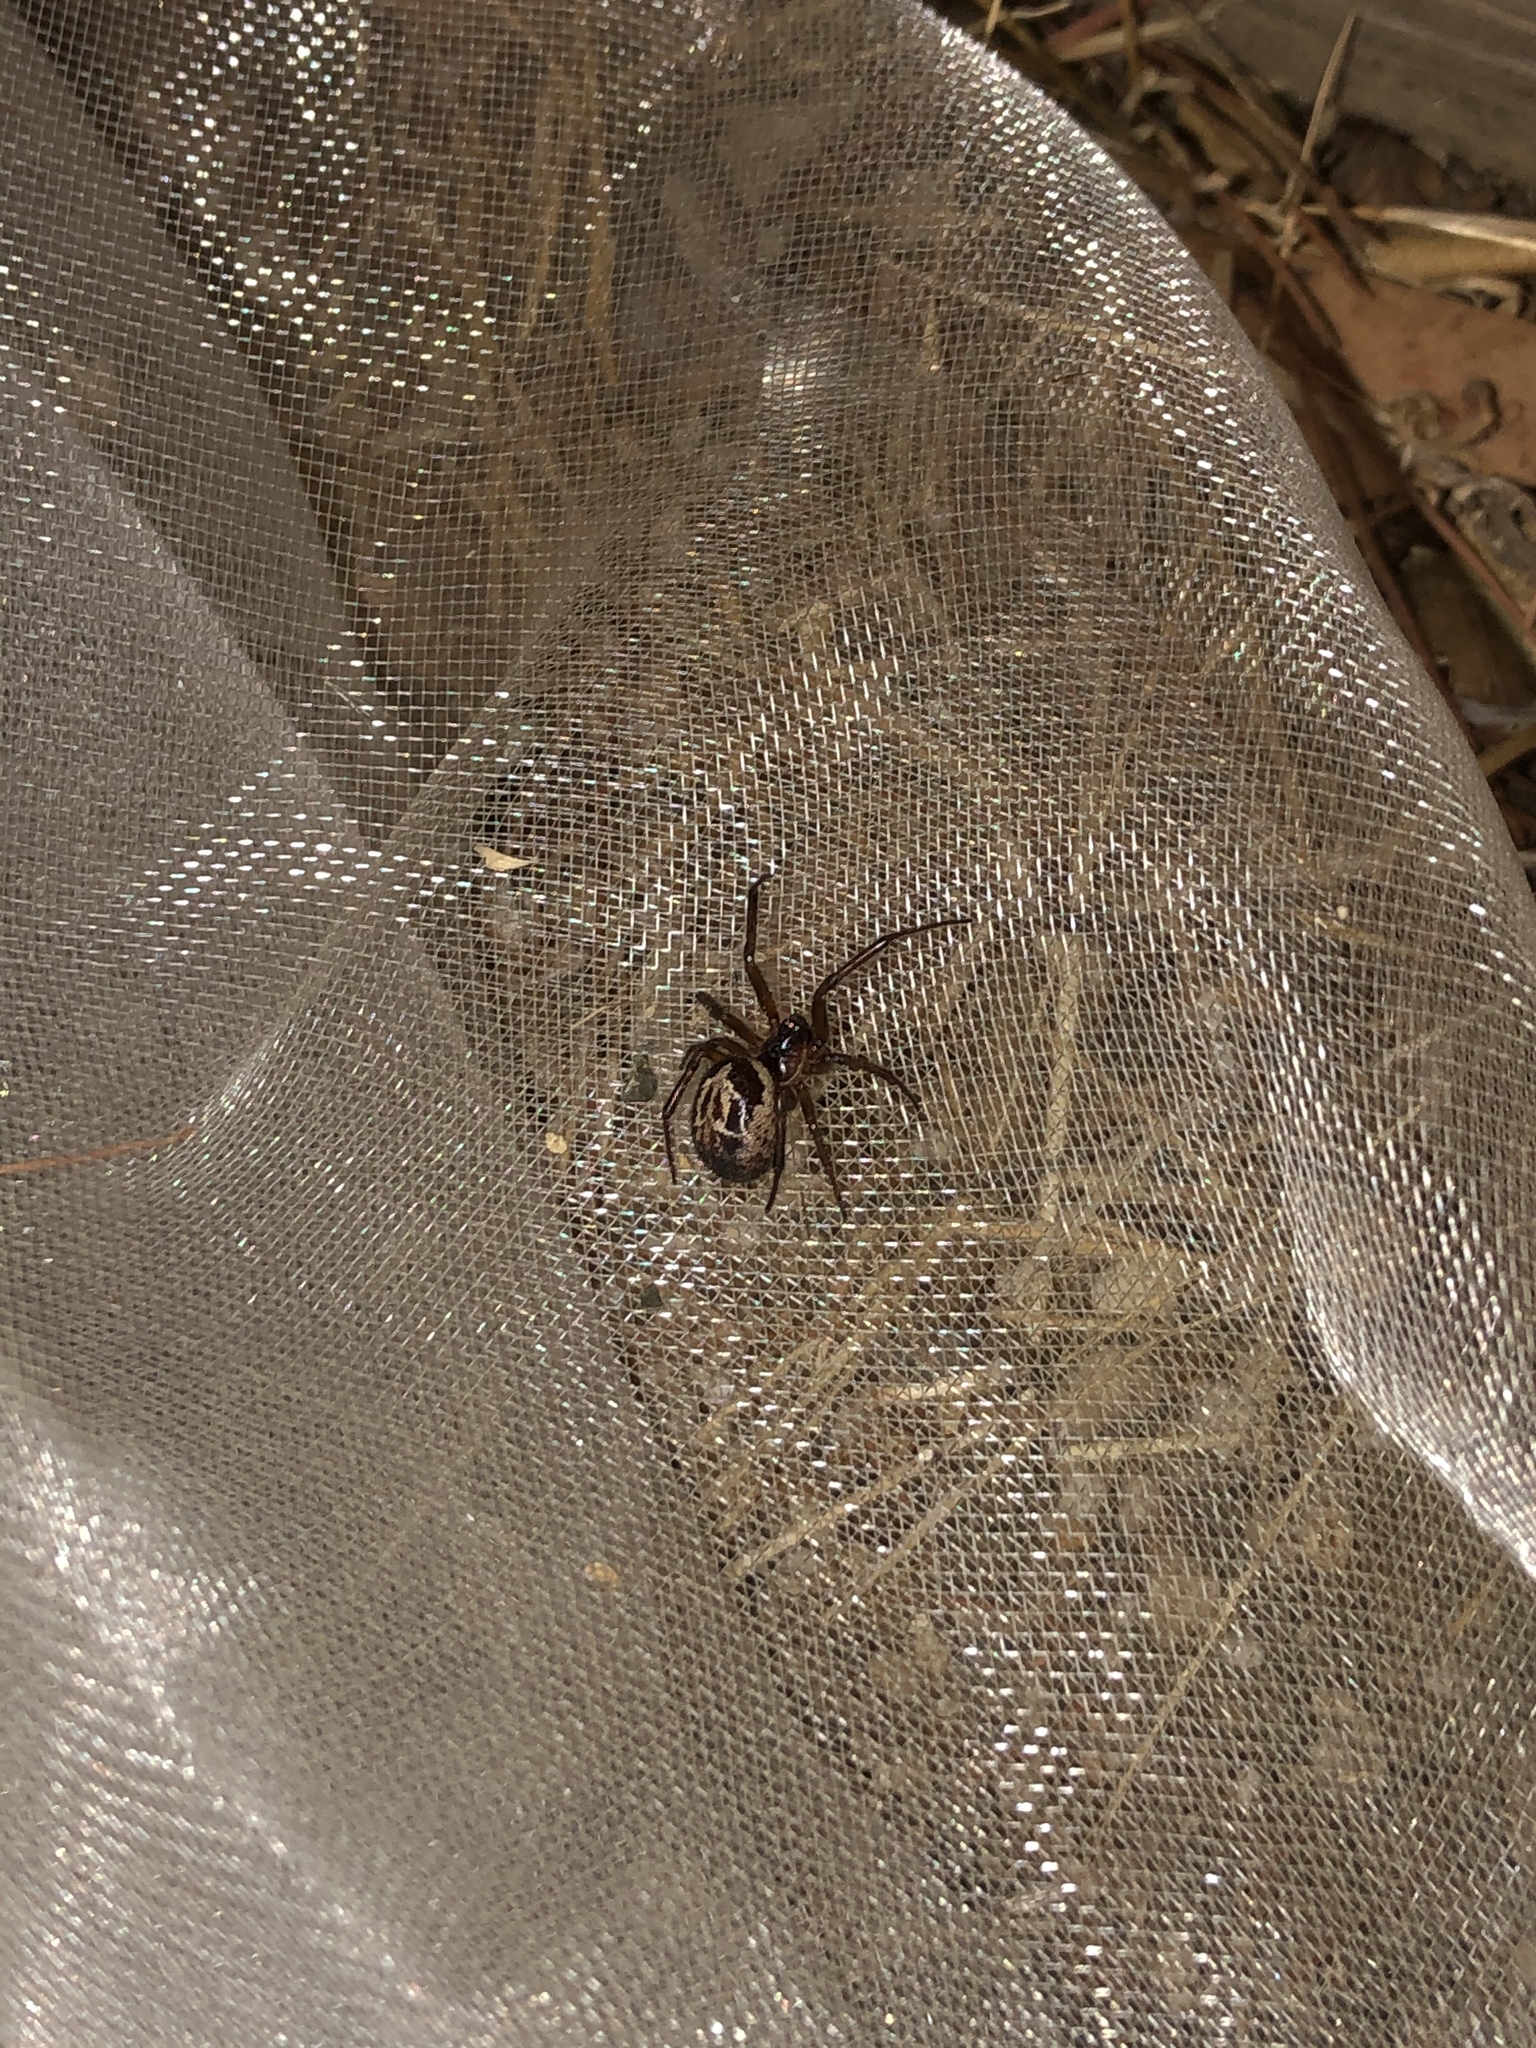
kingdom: Animalia
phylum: Arthropoda
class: Arachnida
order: Araneae
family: Theridiidae
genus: Steatoda
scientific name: Steatoda nobilis
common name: Cobweb weaver
